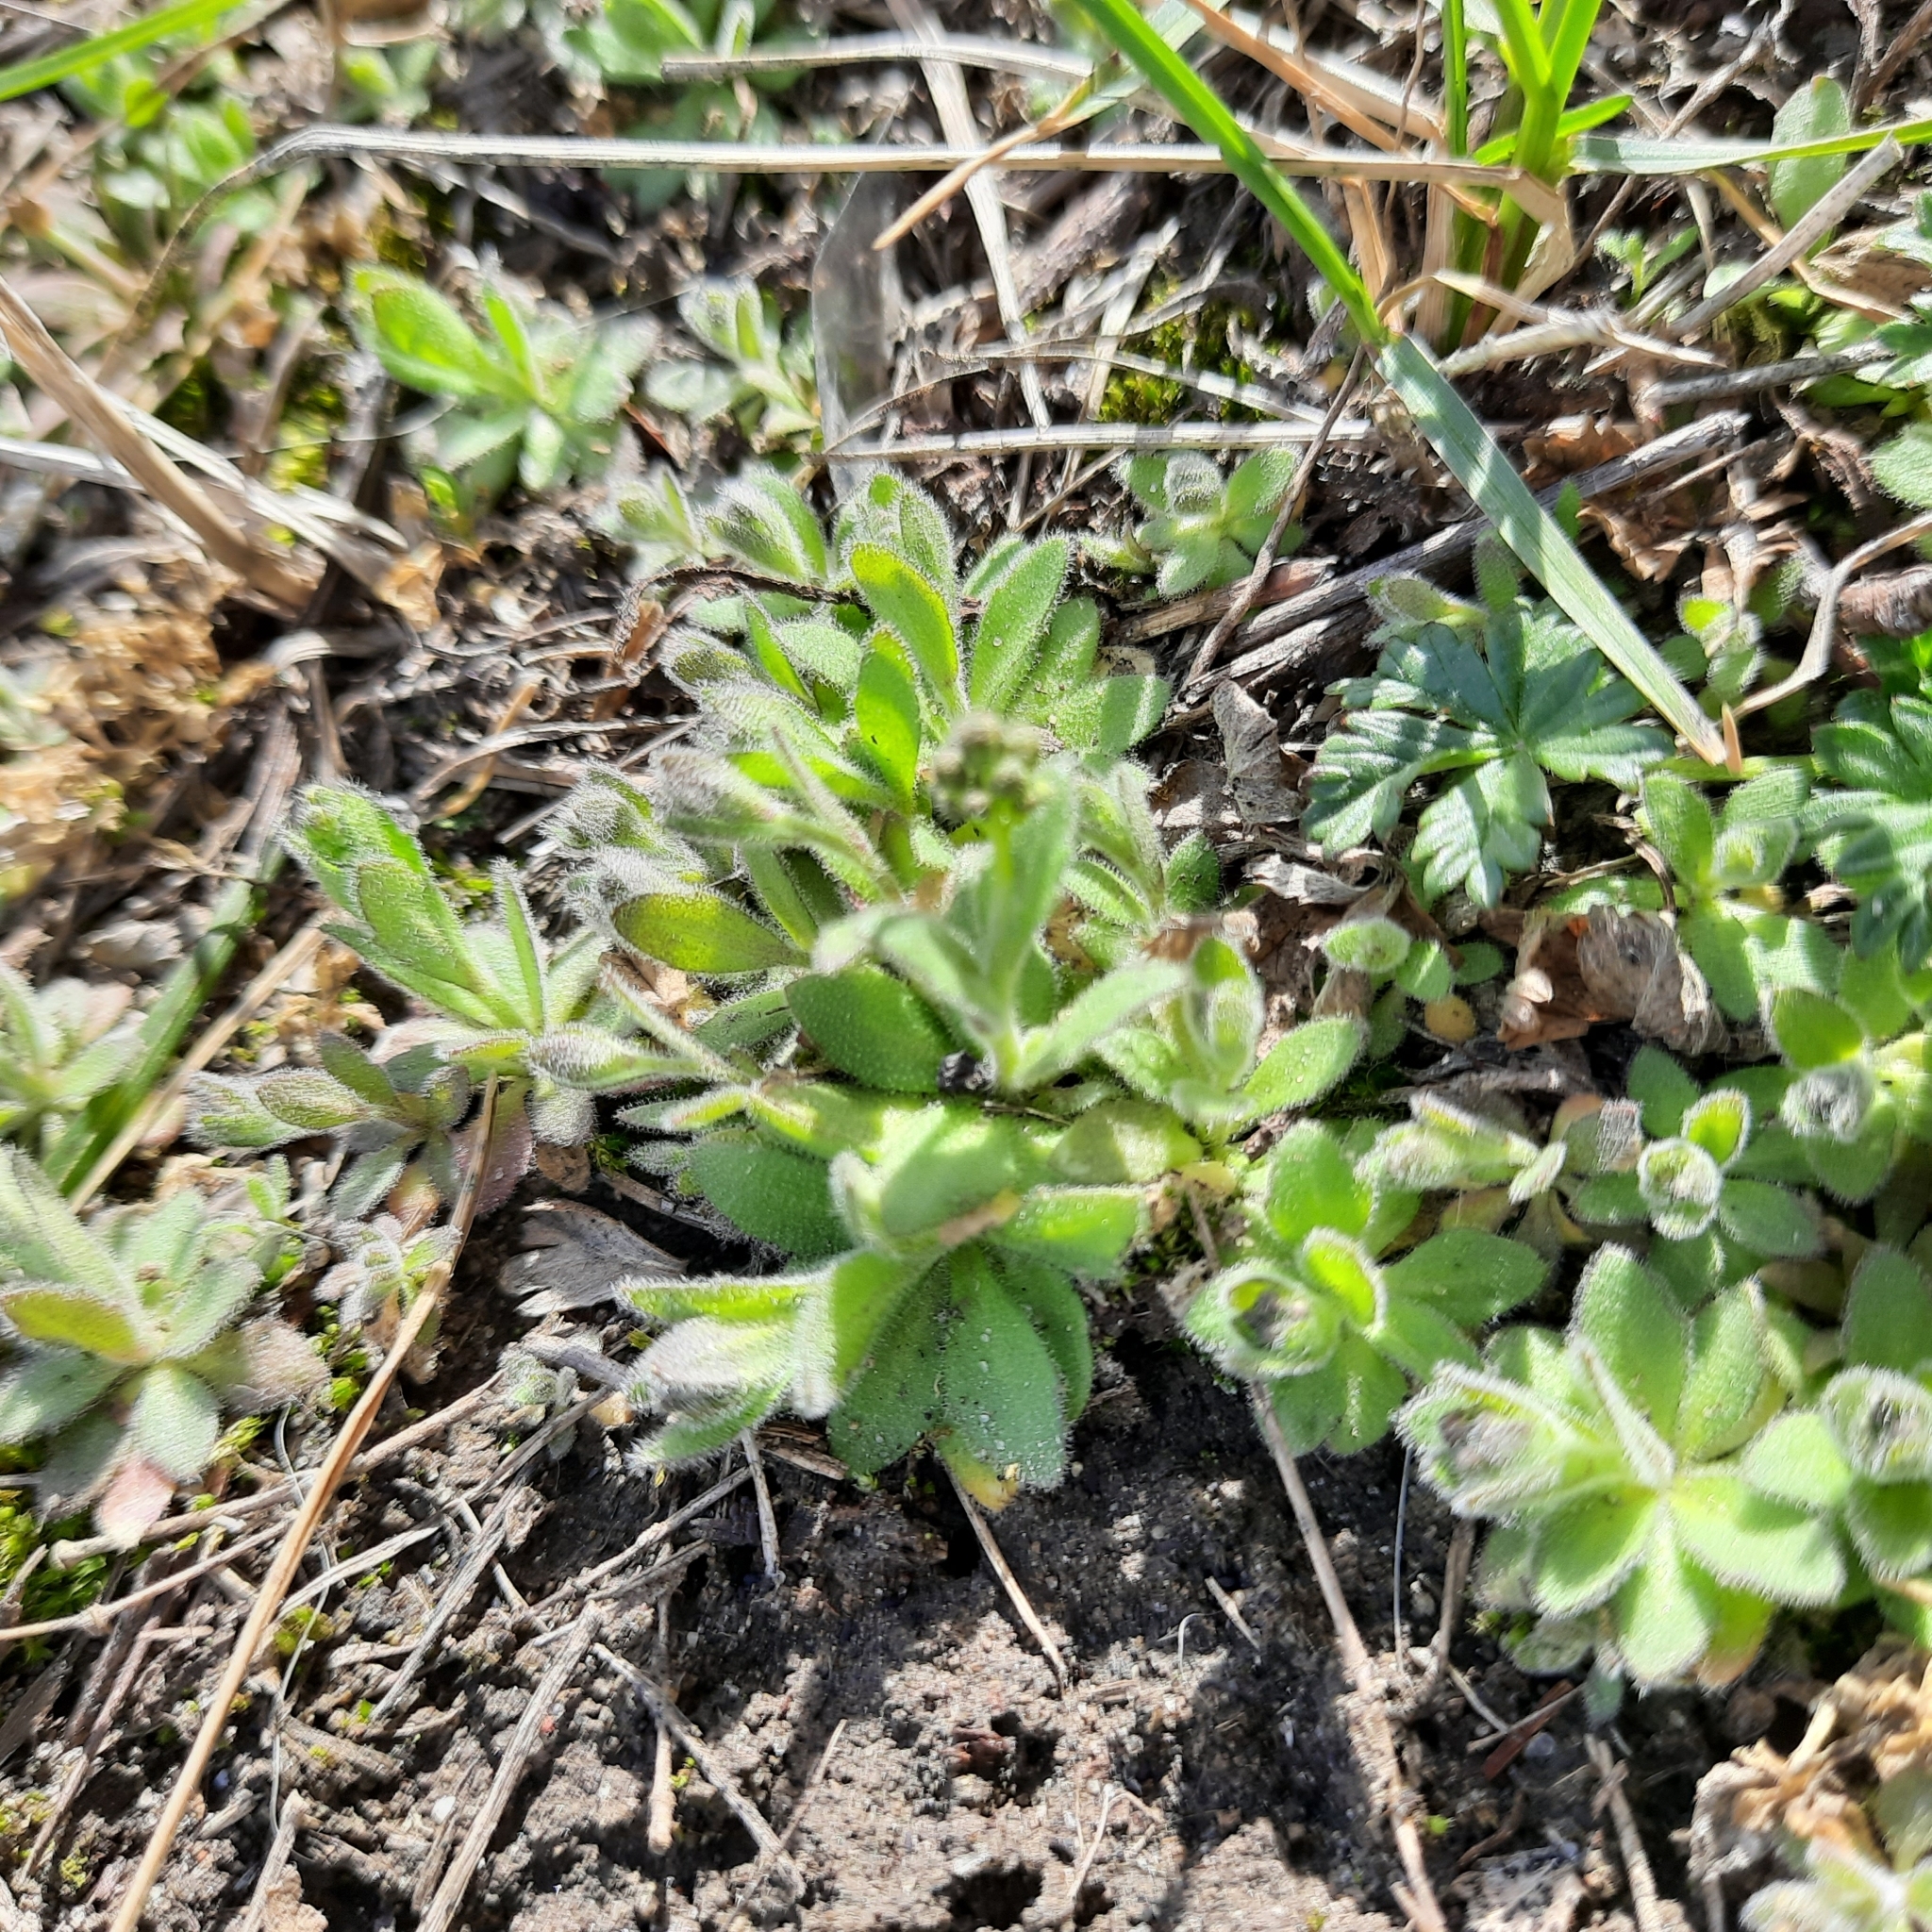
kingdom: Plantae
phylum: Tracheophyta
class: Magnoliopsida
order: Brassicales
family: Brassicaceae
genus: Draba
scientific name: Draba nemorosa
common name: Wood whitlow-grass
